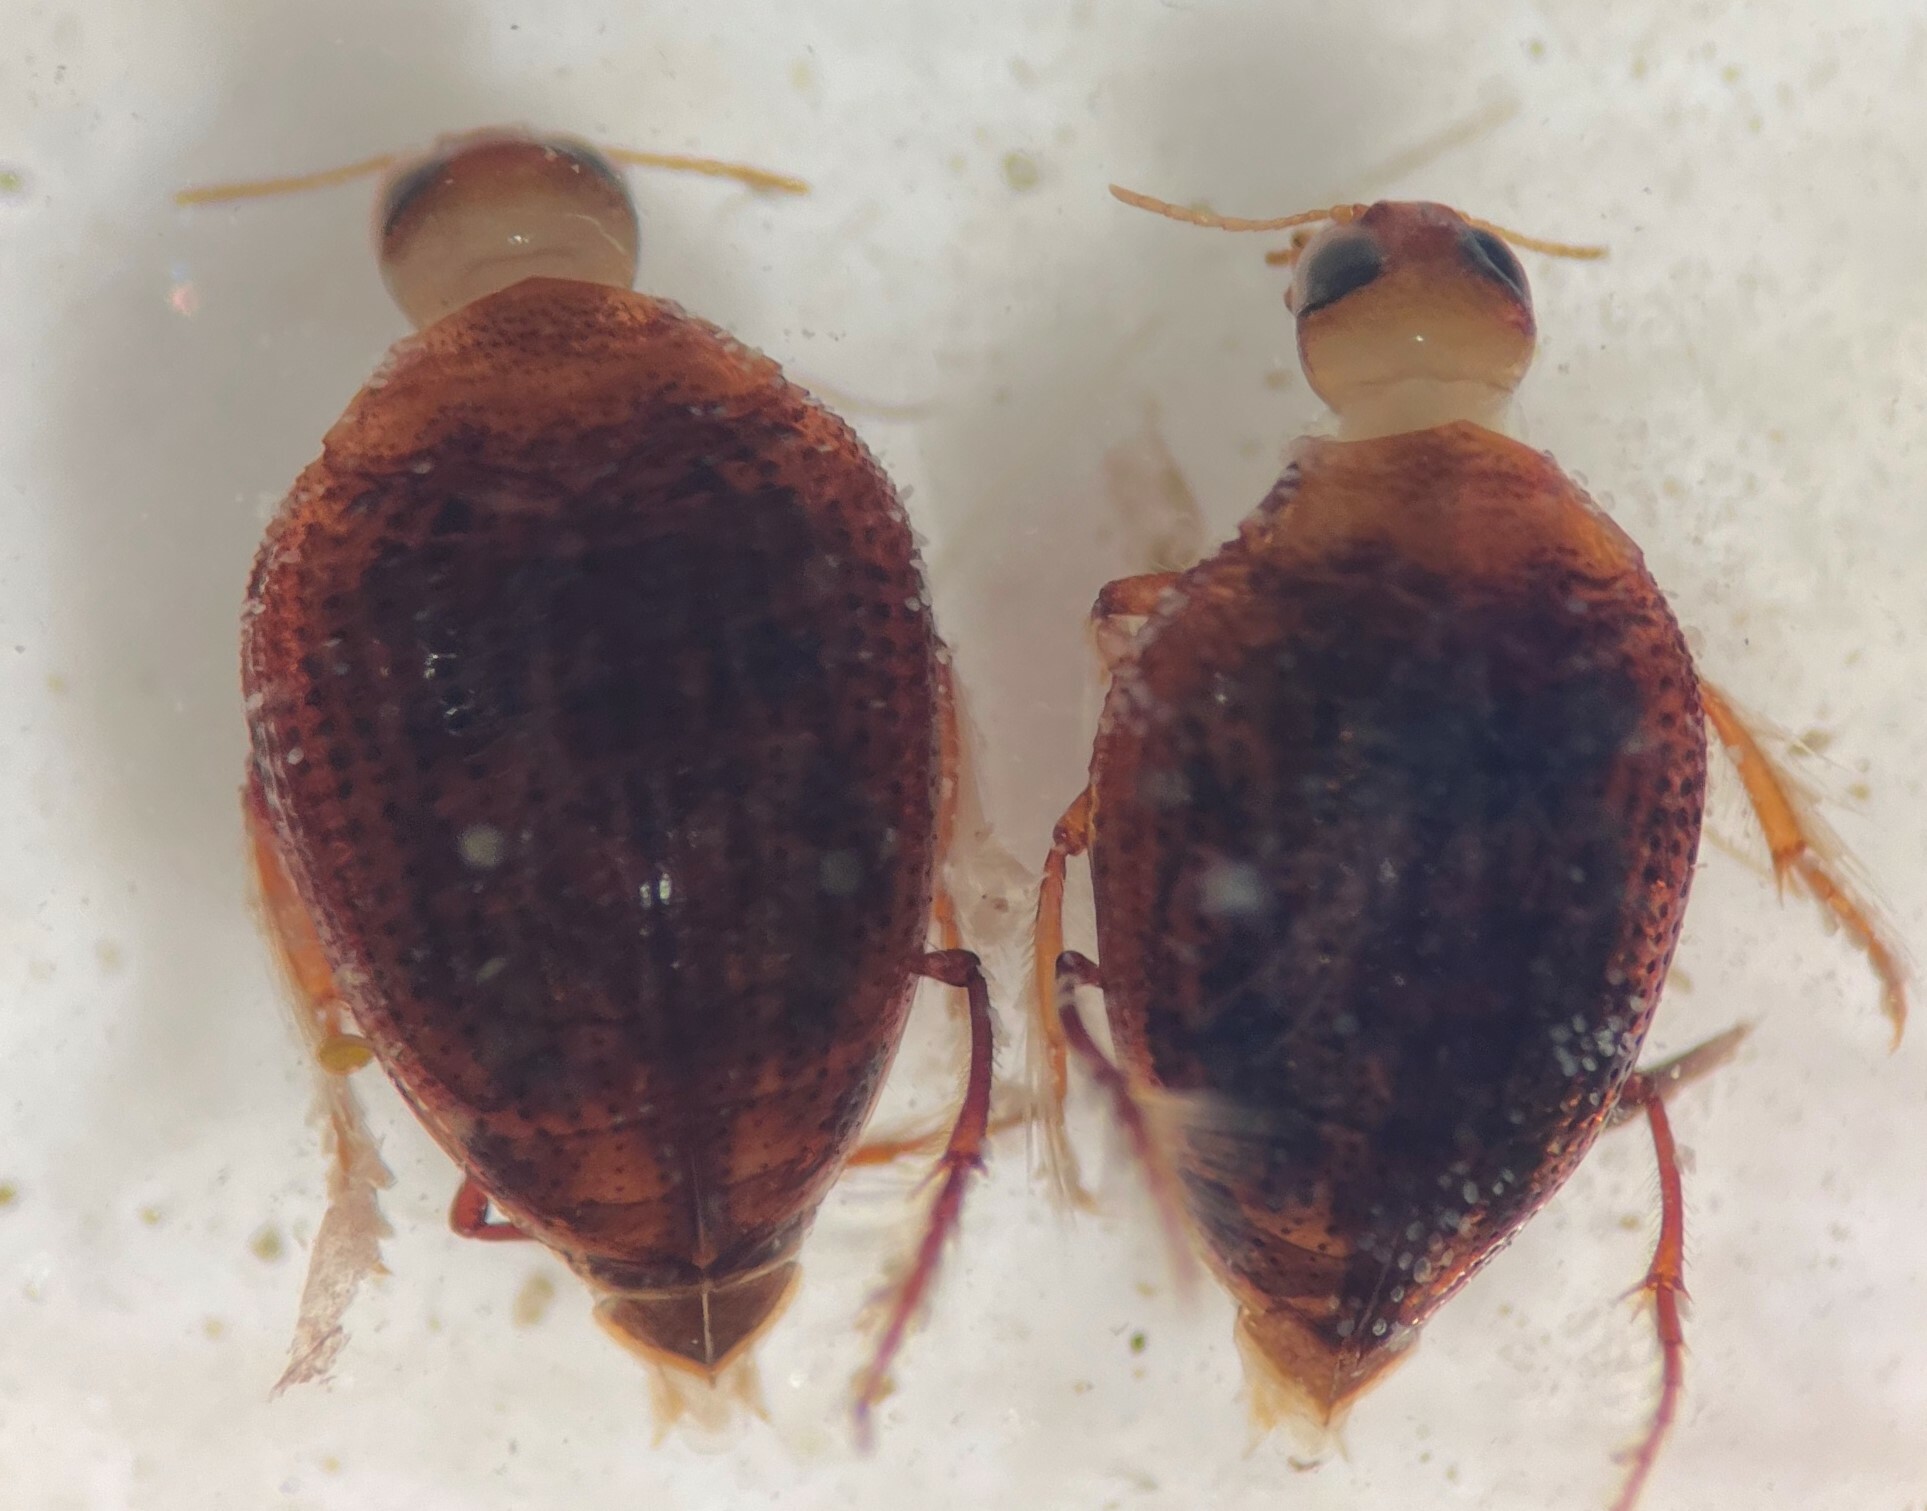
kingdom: Animalia
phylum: Arthropoda
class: Insecta
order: Coleoptera
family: Haliplidae
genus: Haliplus
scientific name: Haliplus tumidus
